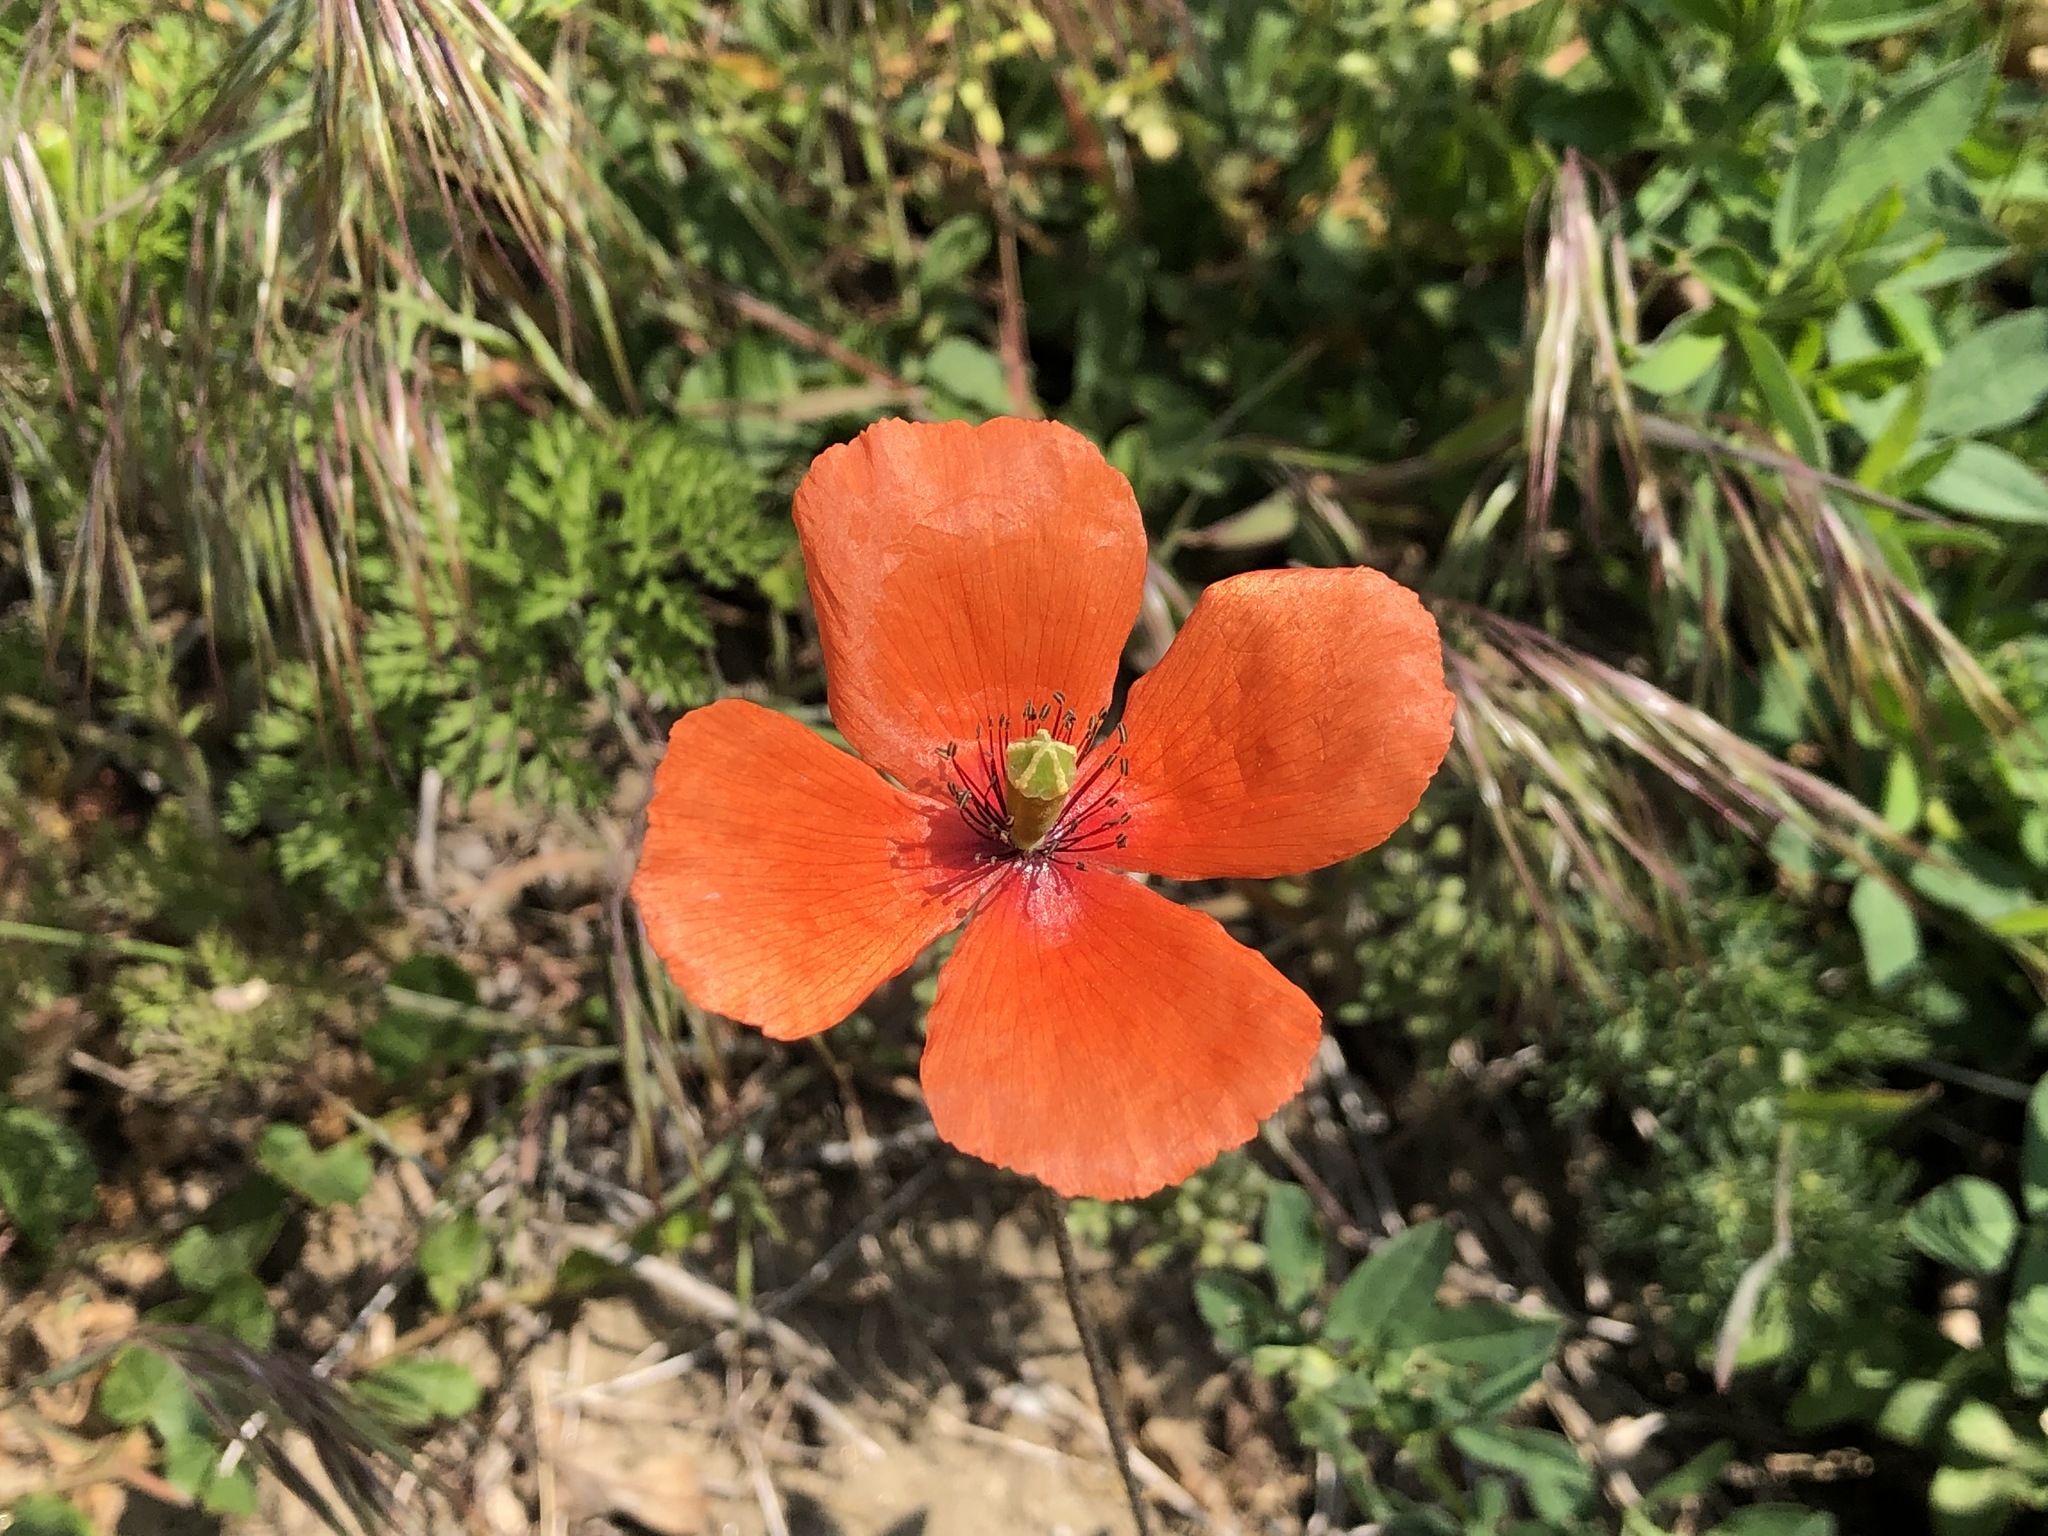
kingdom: Plantae
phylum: Tracheophyta
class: Magnoliopsida
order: Ranunculales
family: Papaveraceae
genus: Papaver
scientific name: Papaver dubium
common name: Long-headed poppy
